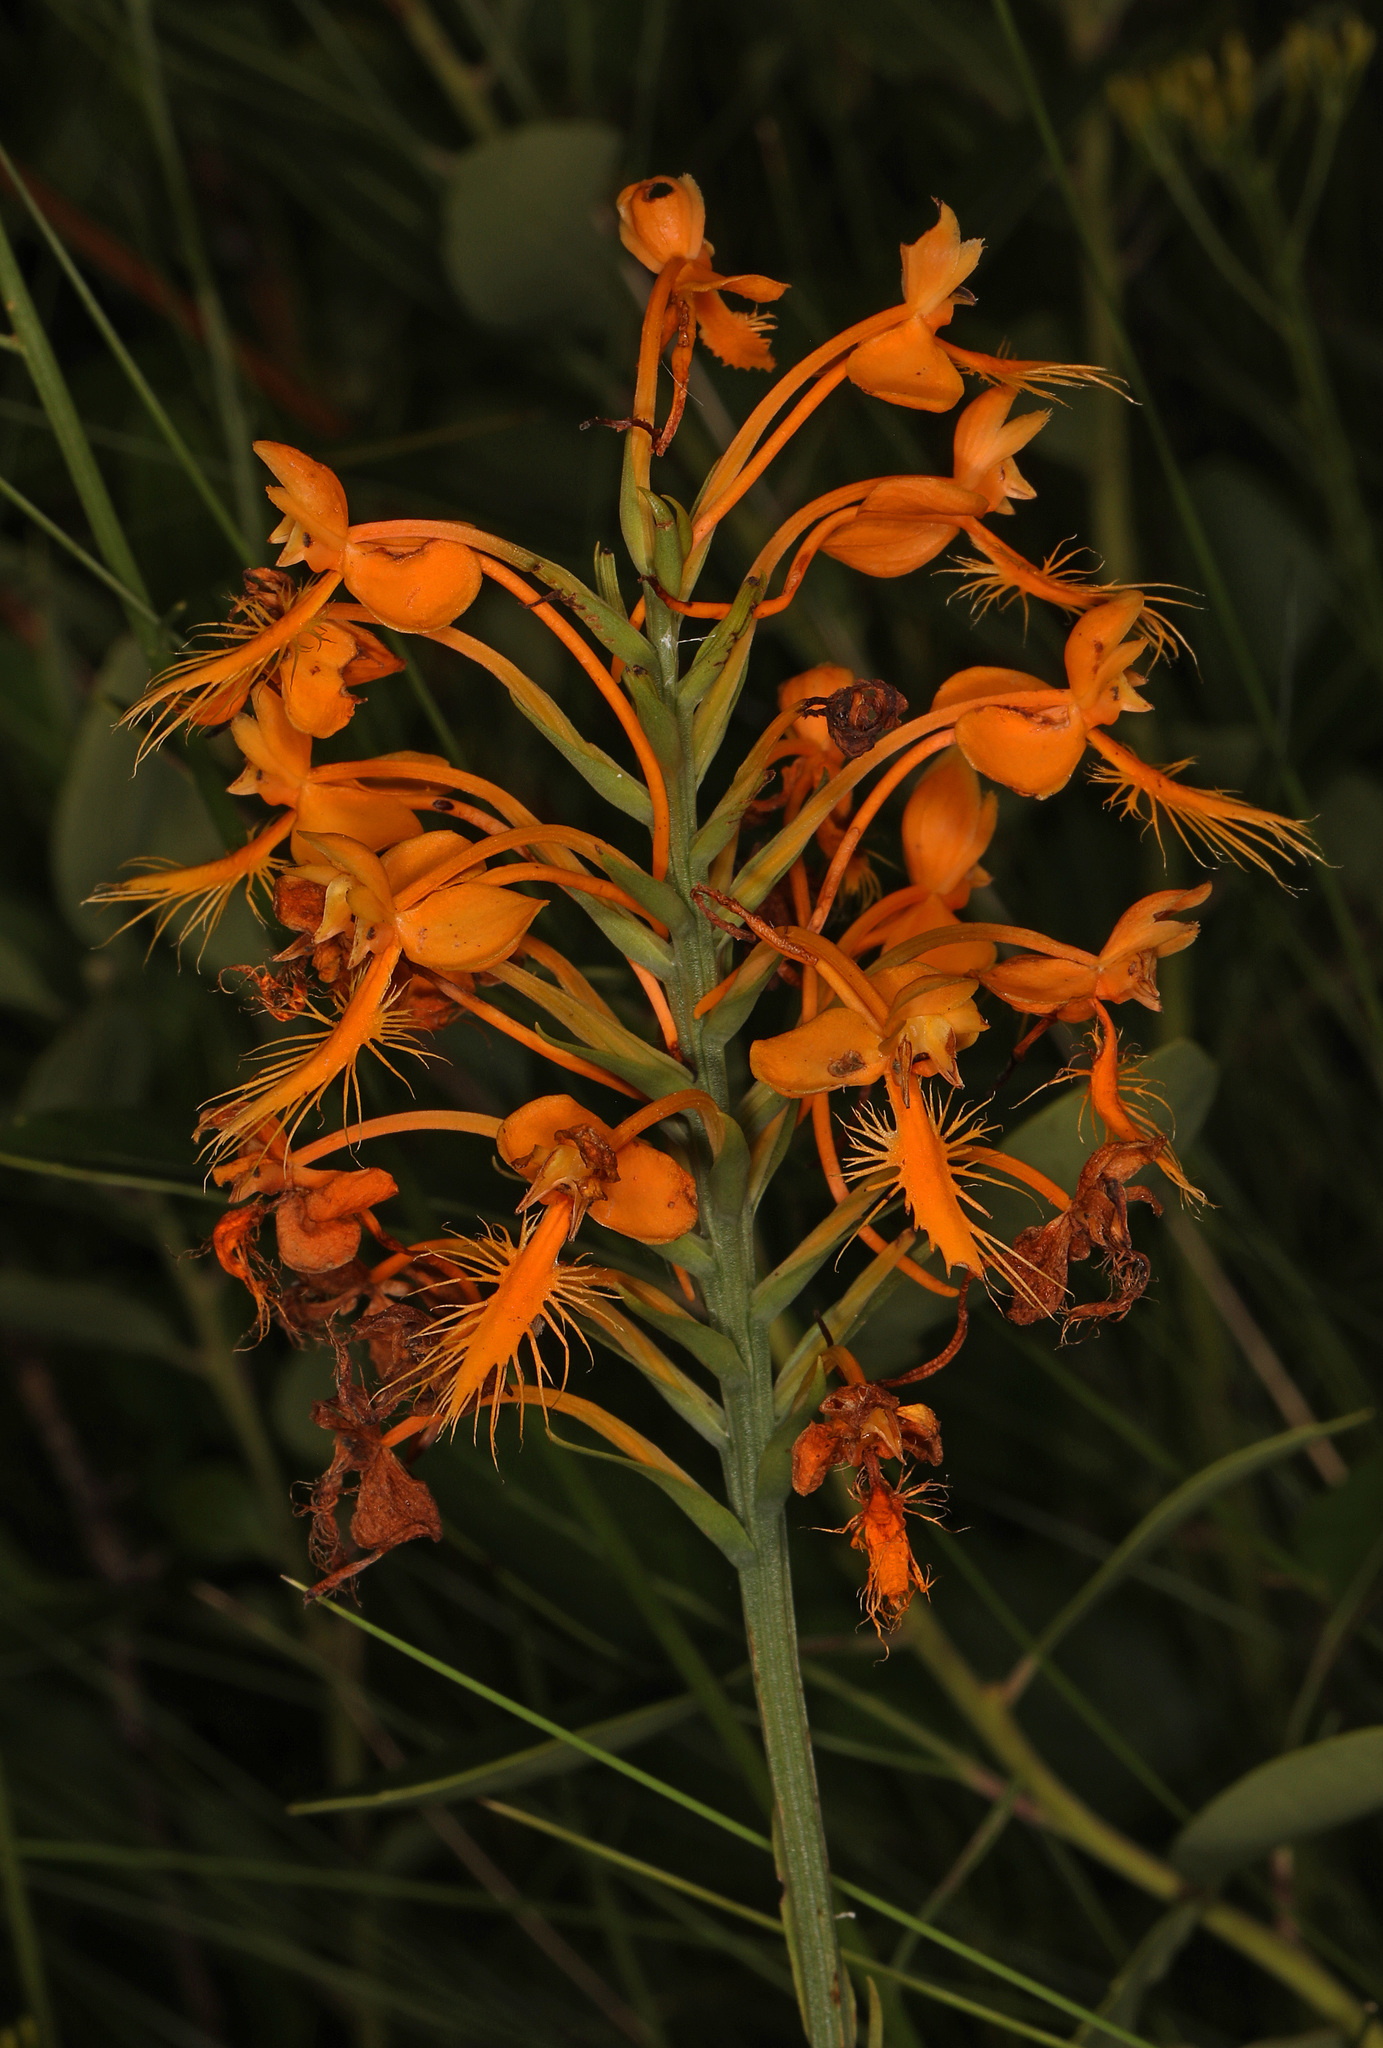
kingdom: Plantae
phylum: Tracheophyta
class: Liliopsida
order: Asparagales
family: Orchidaceae
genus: Platanthera
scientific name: Platanthera ciliaris
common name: Yellow fringed orchid
